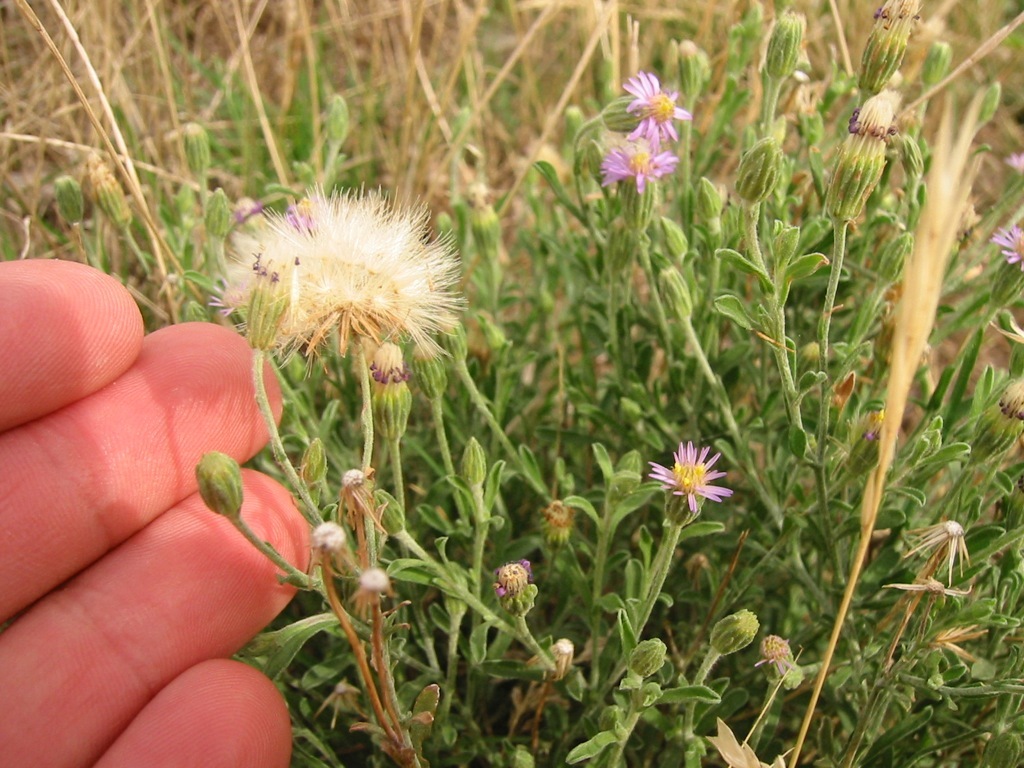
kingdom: Plantae
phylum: Tracheophyta
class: Magnoliopsida
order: Asterales
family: Asteraceae
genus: Vittadinia
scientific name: Vittadinia cuneata
